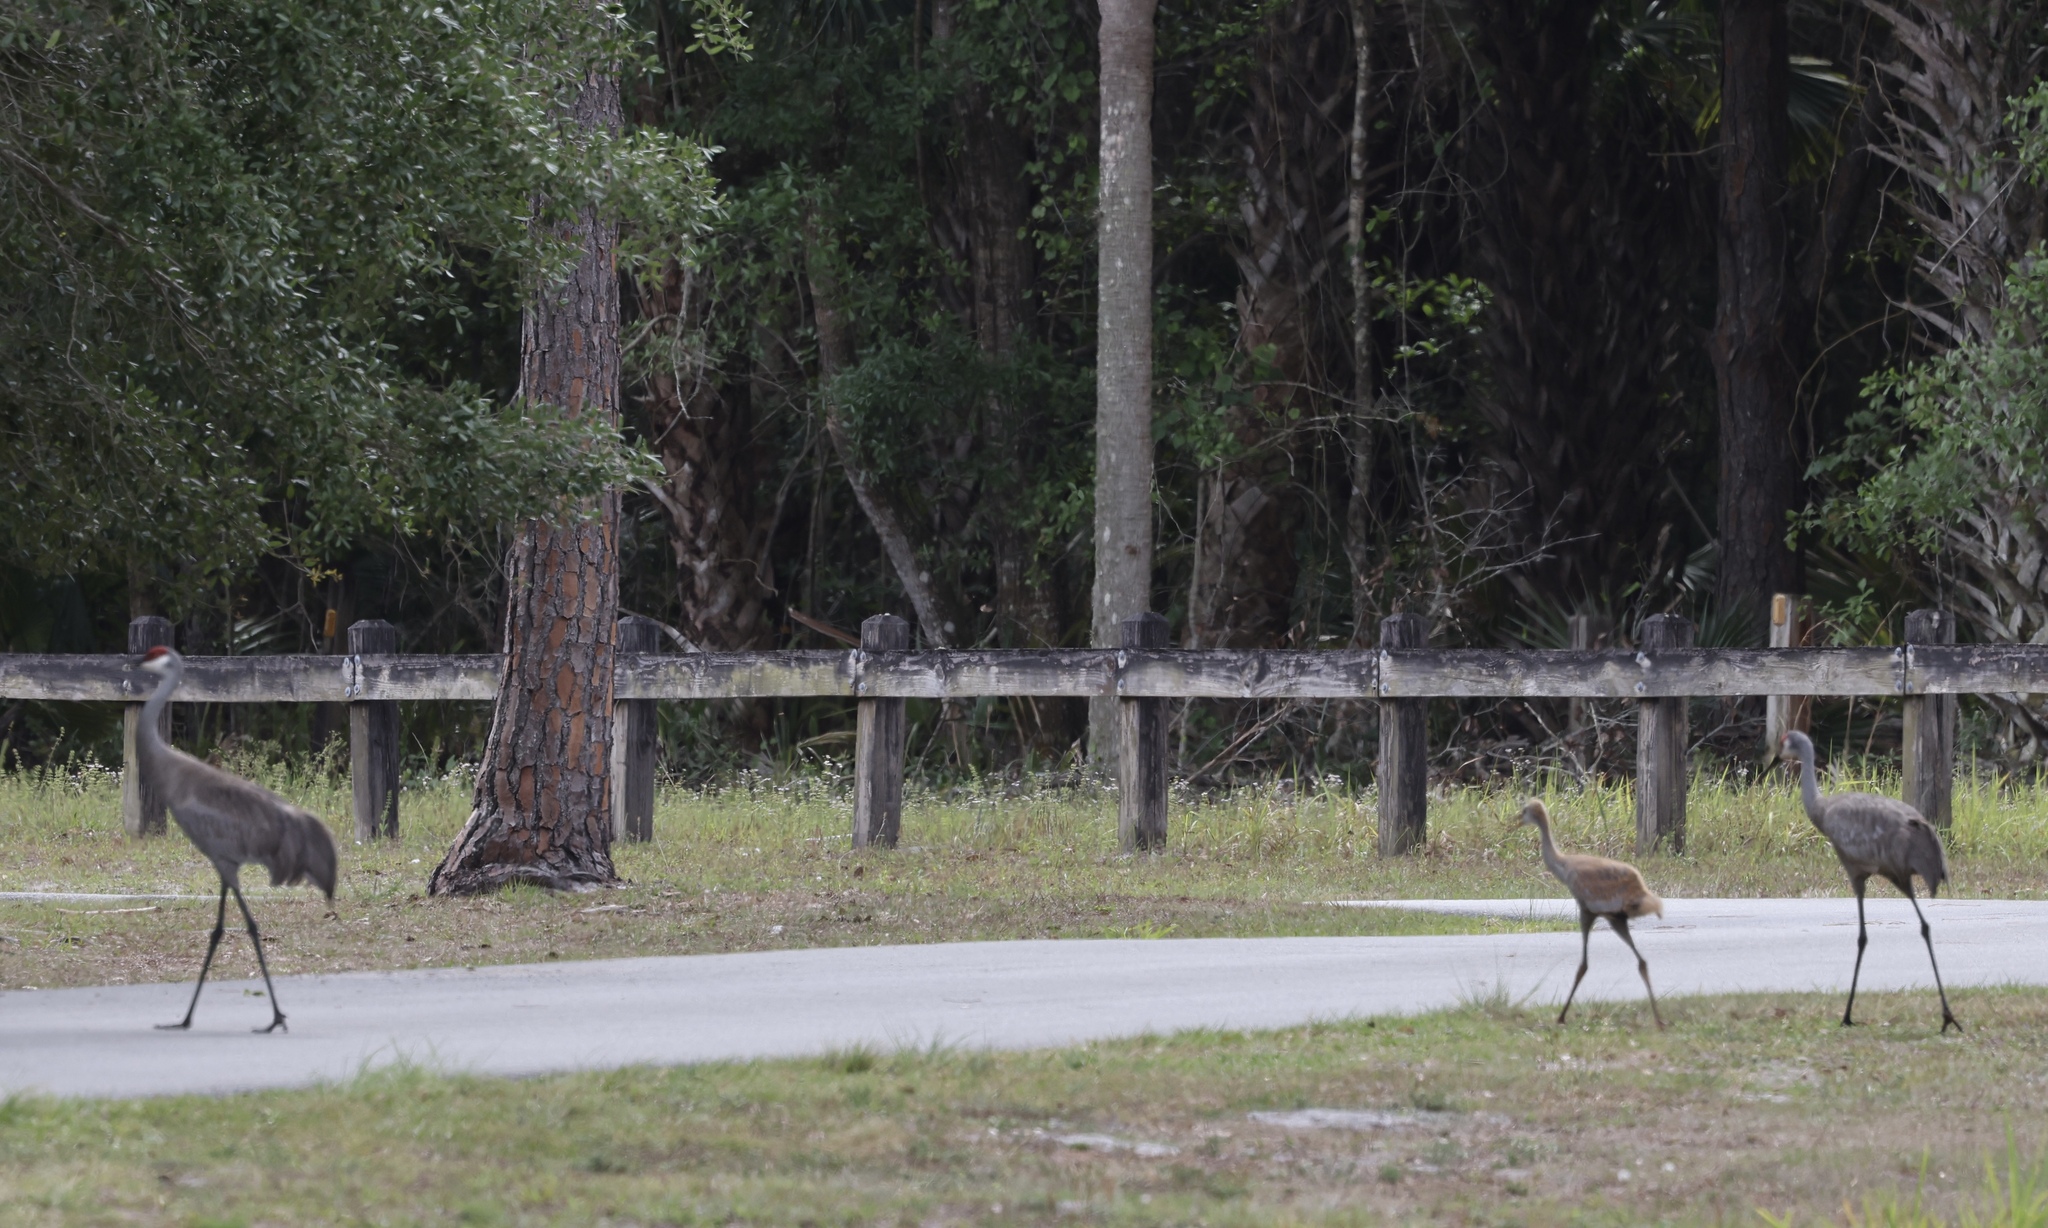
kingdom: Animalia
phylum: Chordata
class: Aves
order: Gruiformes
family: Gruidae
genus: Grus
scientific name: Grus canadensis
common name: Sandhill crane
